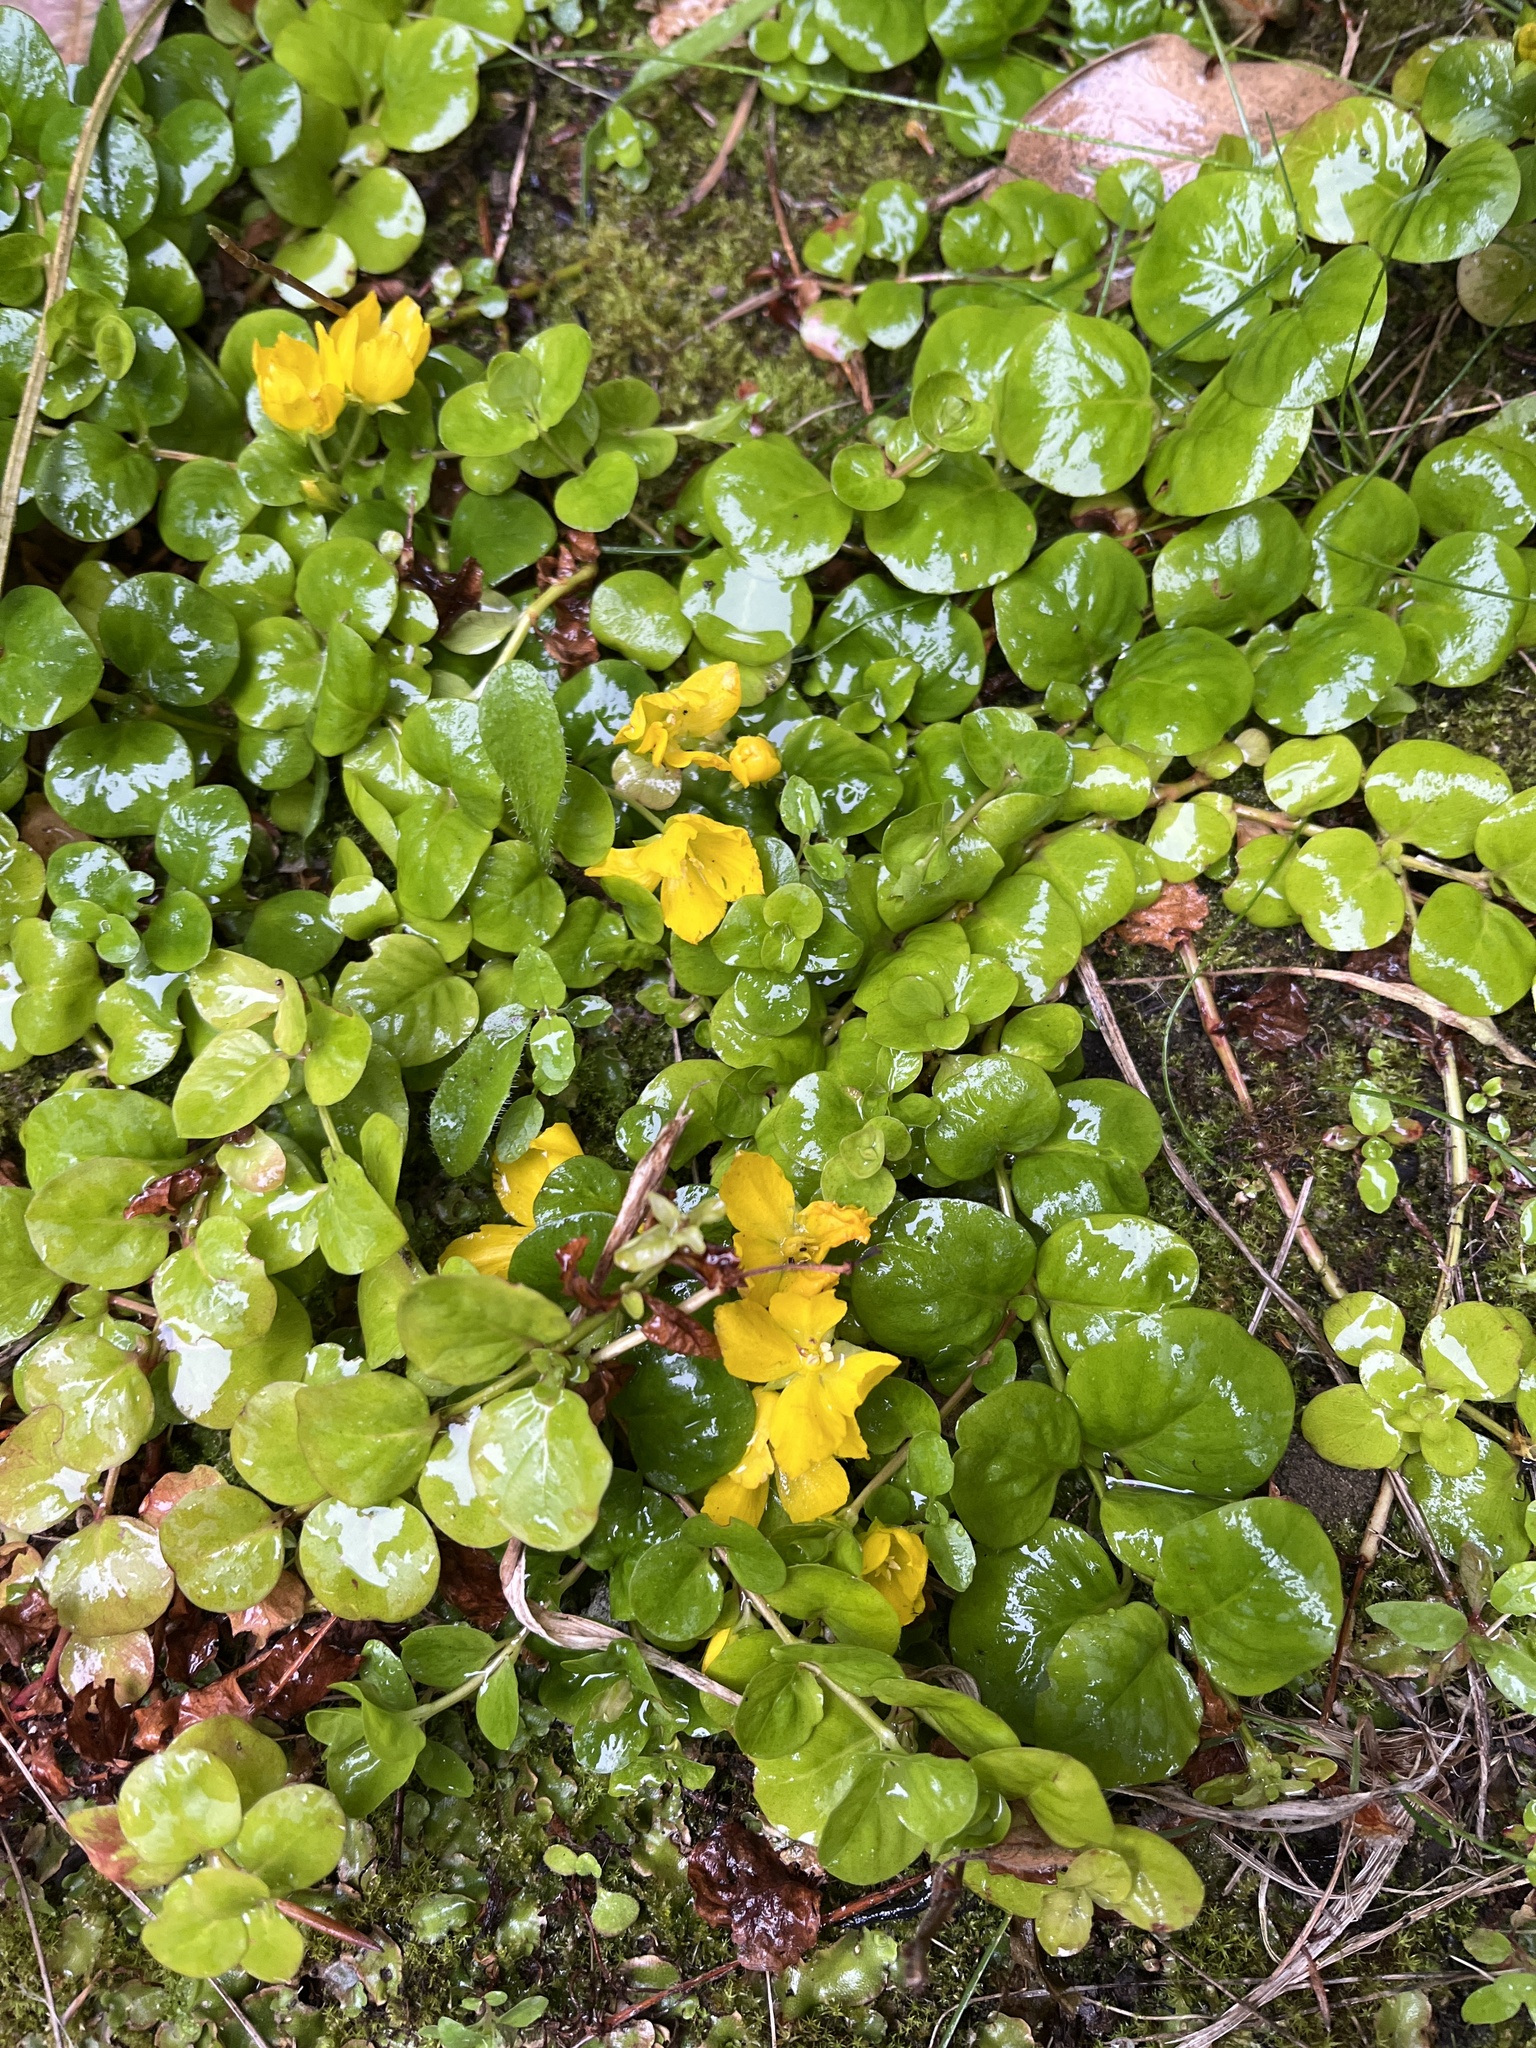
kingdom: Plantae
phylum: Tracheophyta
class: Magnoliopsida
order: Ericales
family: Primulaceae
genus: Lysimachia
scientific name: Lysimachia nummularia
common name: Moneywort
